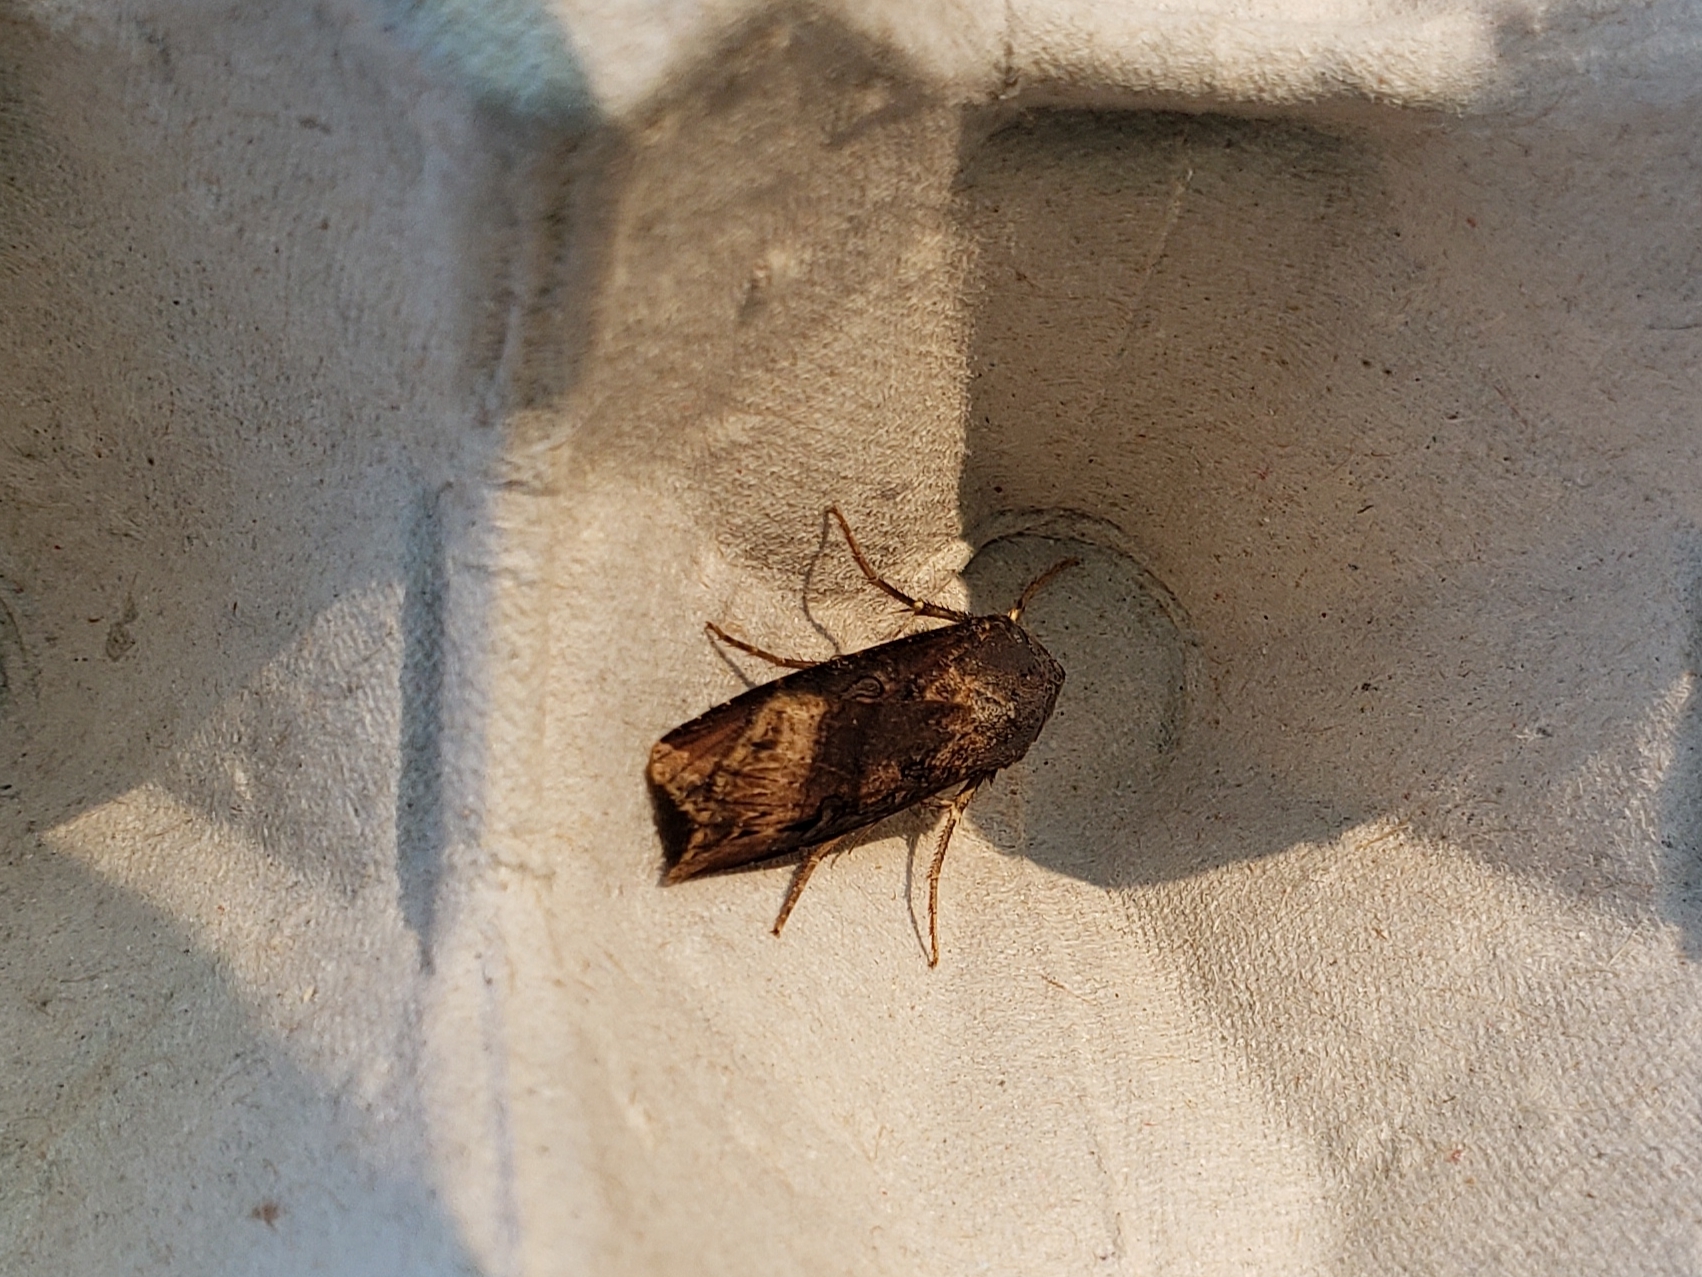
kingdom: Animalia
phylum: Arthropoda
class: Insecta
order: Lepidoptera
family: Noctuidae
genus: Agrotis
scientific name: Agrotis ipsilon
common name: Dark sword-grass
